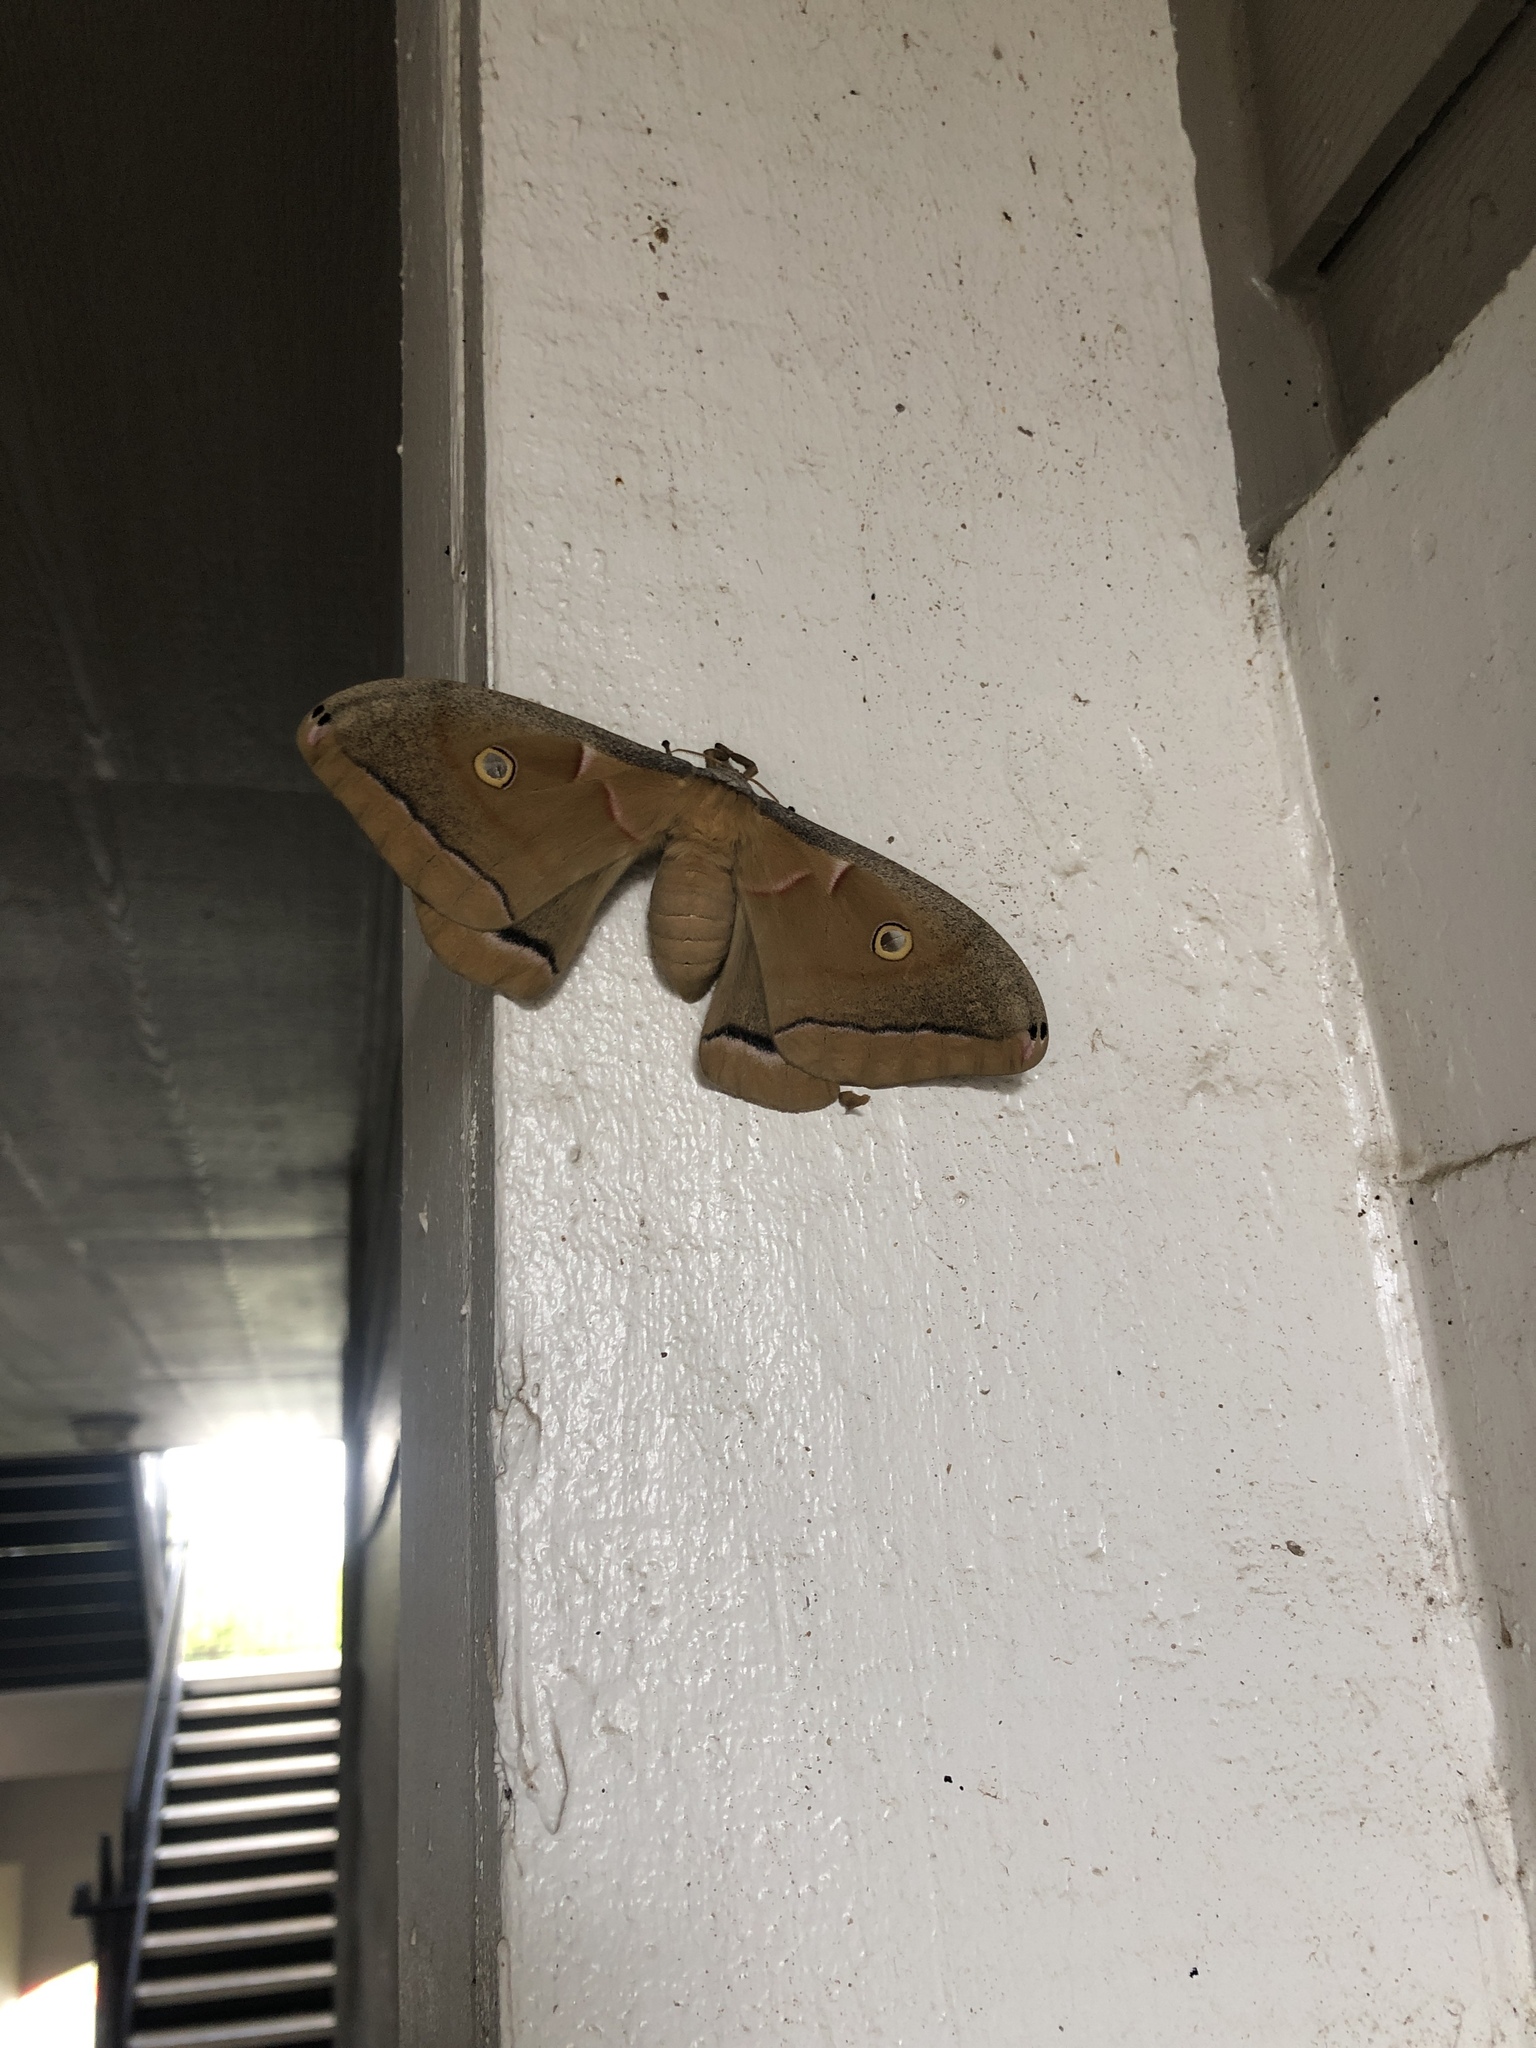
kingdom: Animalia
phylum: Arthropoda
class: Insecta
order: Lepidoptera
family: Saturniidae
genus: Antheraea
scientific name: Antheraea polyphemus
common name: Polyphemus moth
